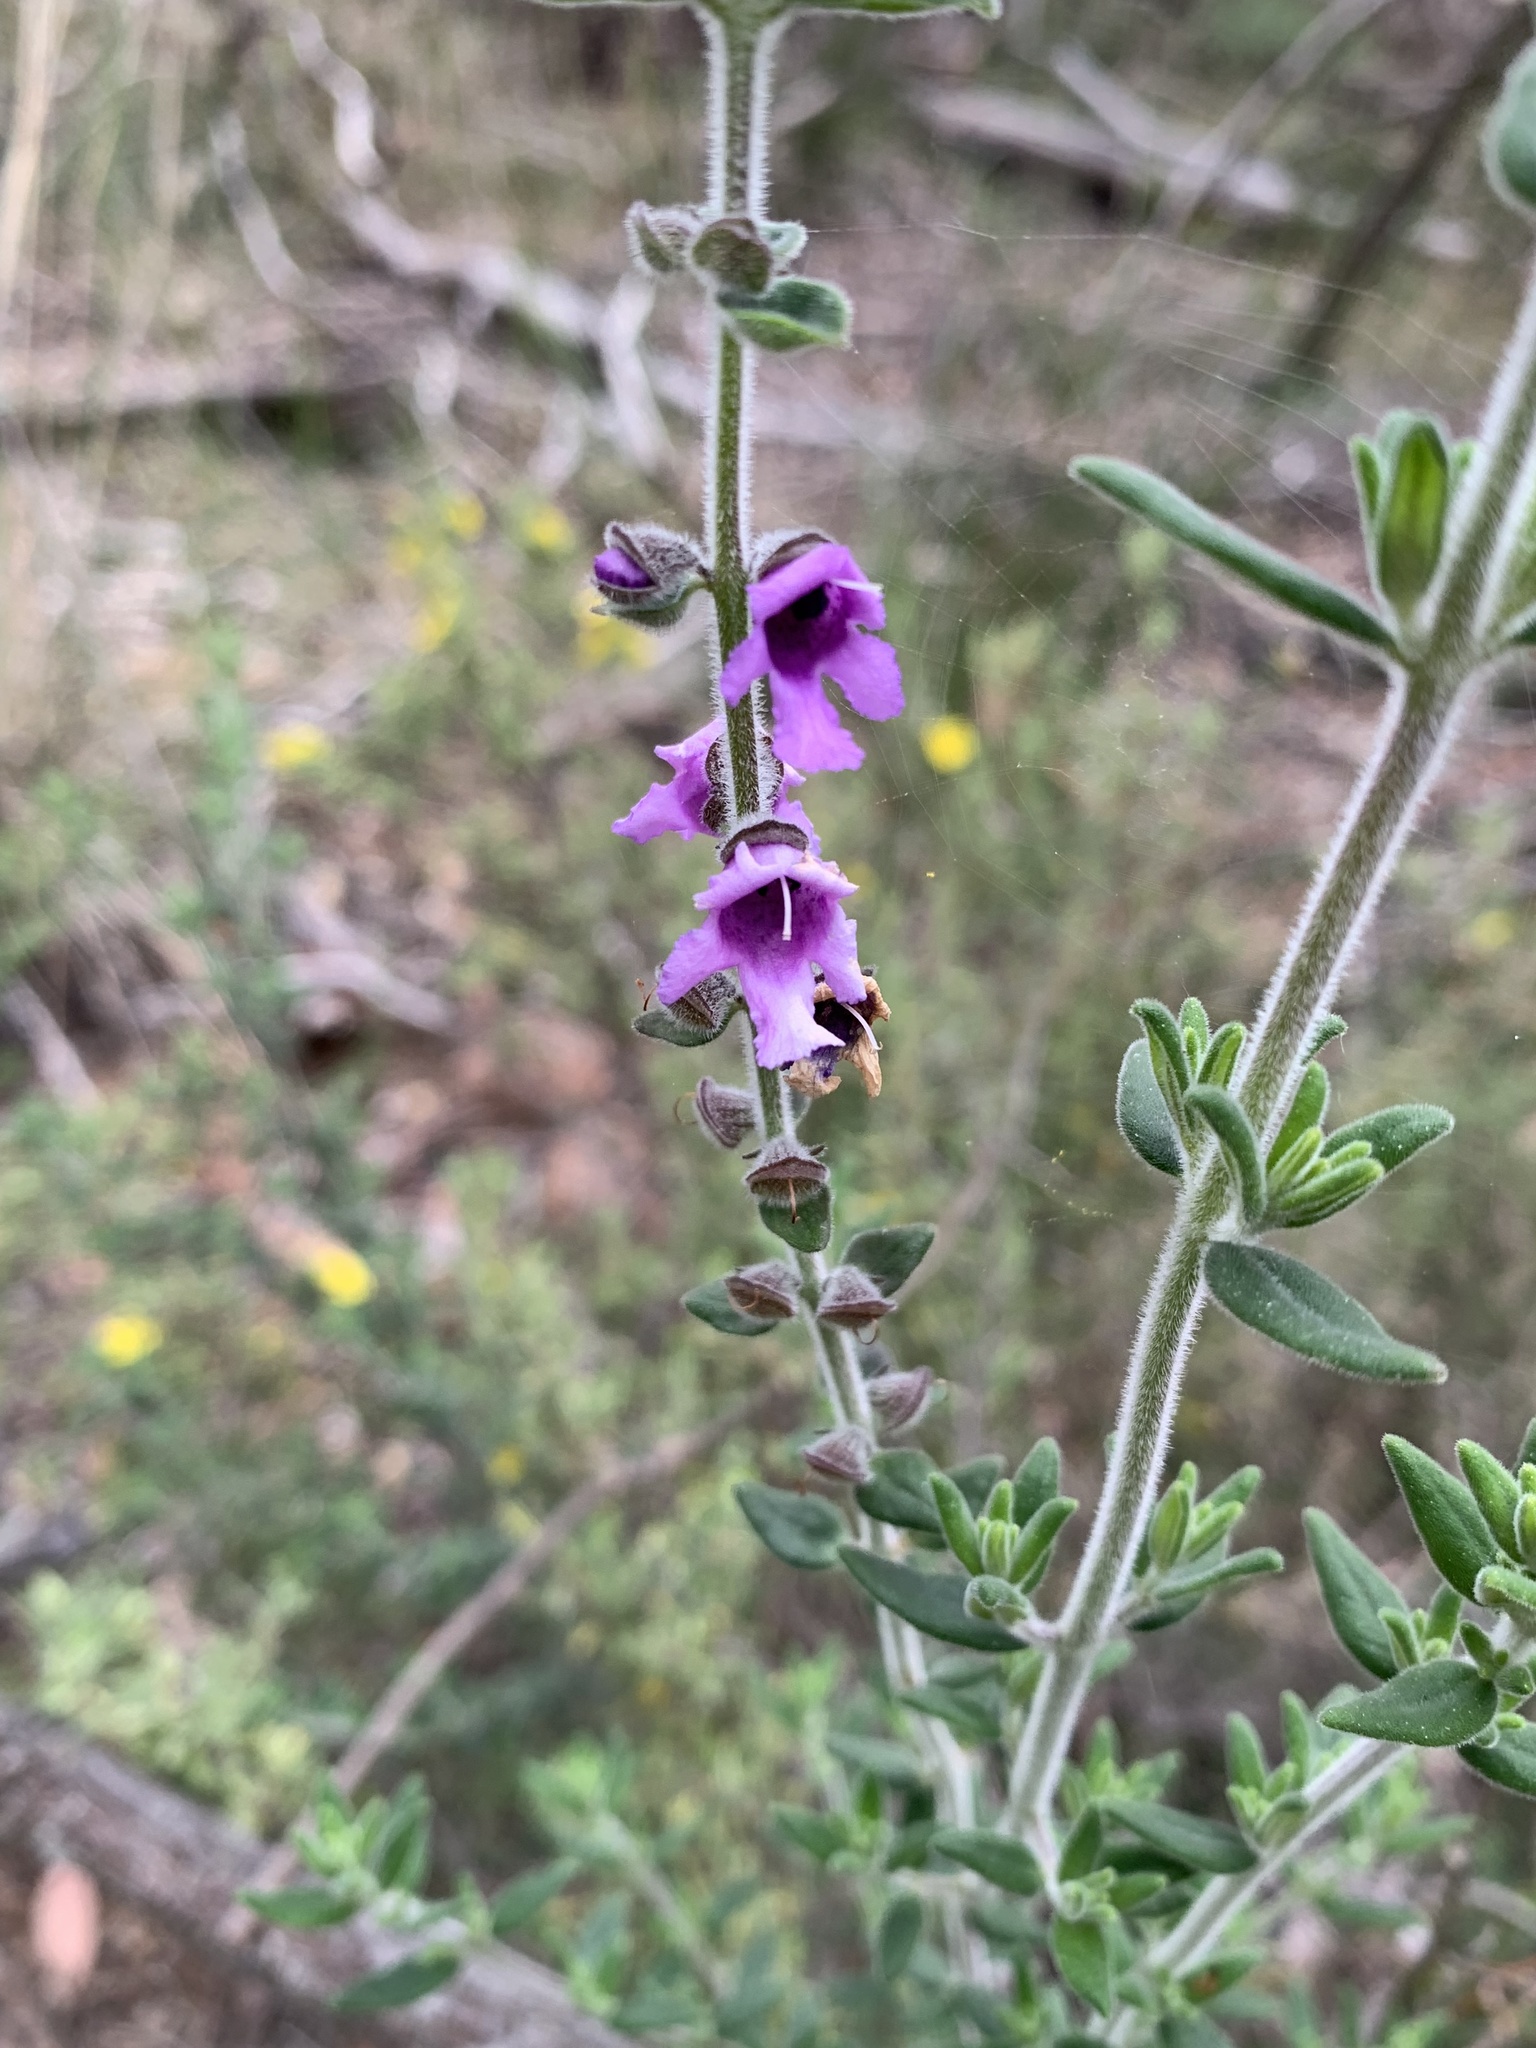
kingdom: Plantae
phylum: Tracheophyta
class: Magnoliopsida
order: Lamiales
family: Lamiaceae
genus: Prostanthera
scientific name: Prostanthera stricta
